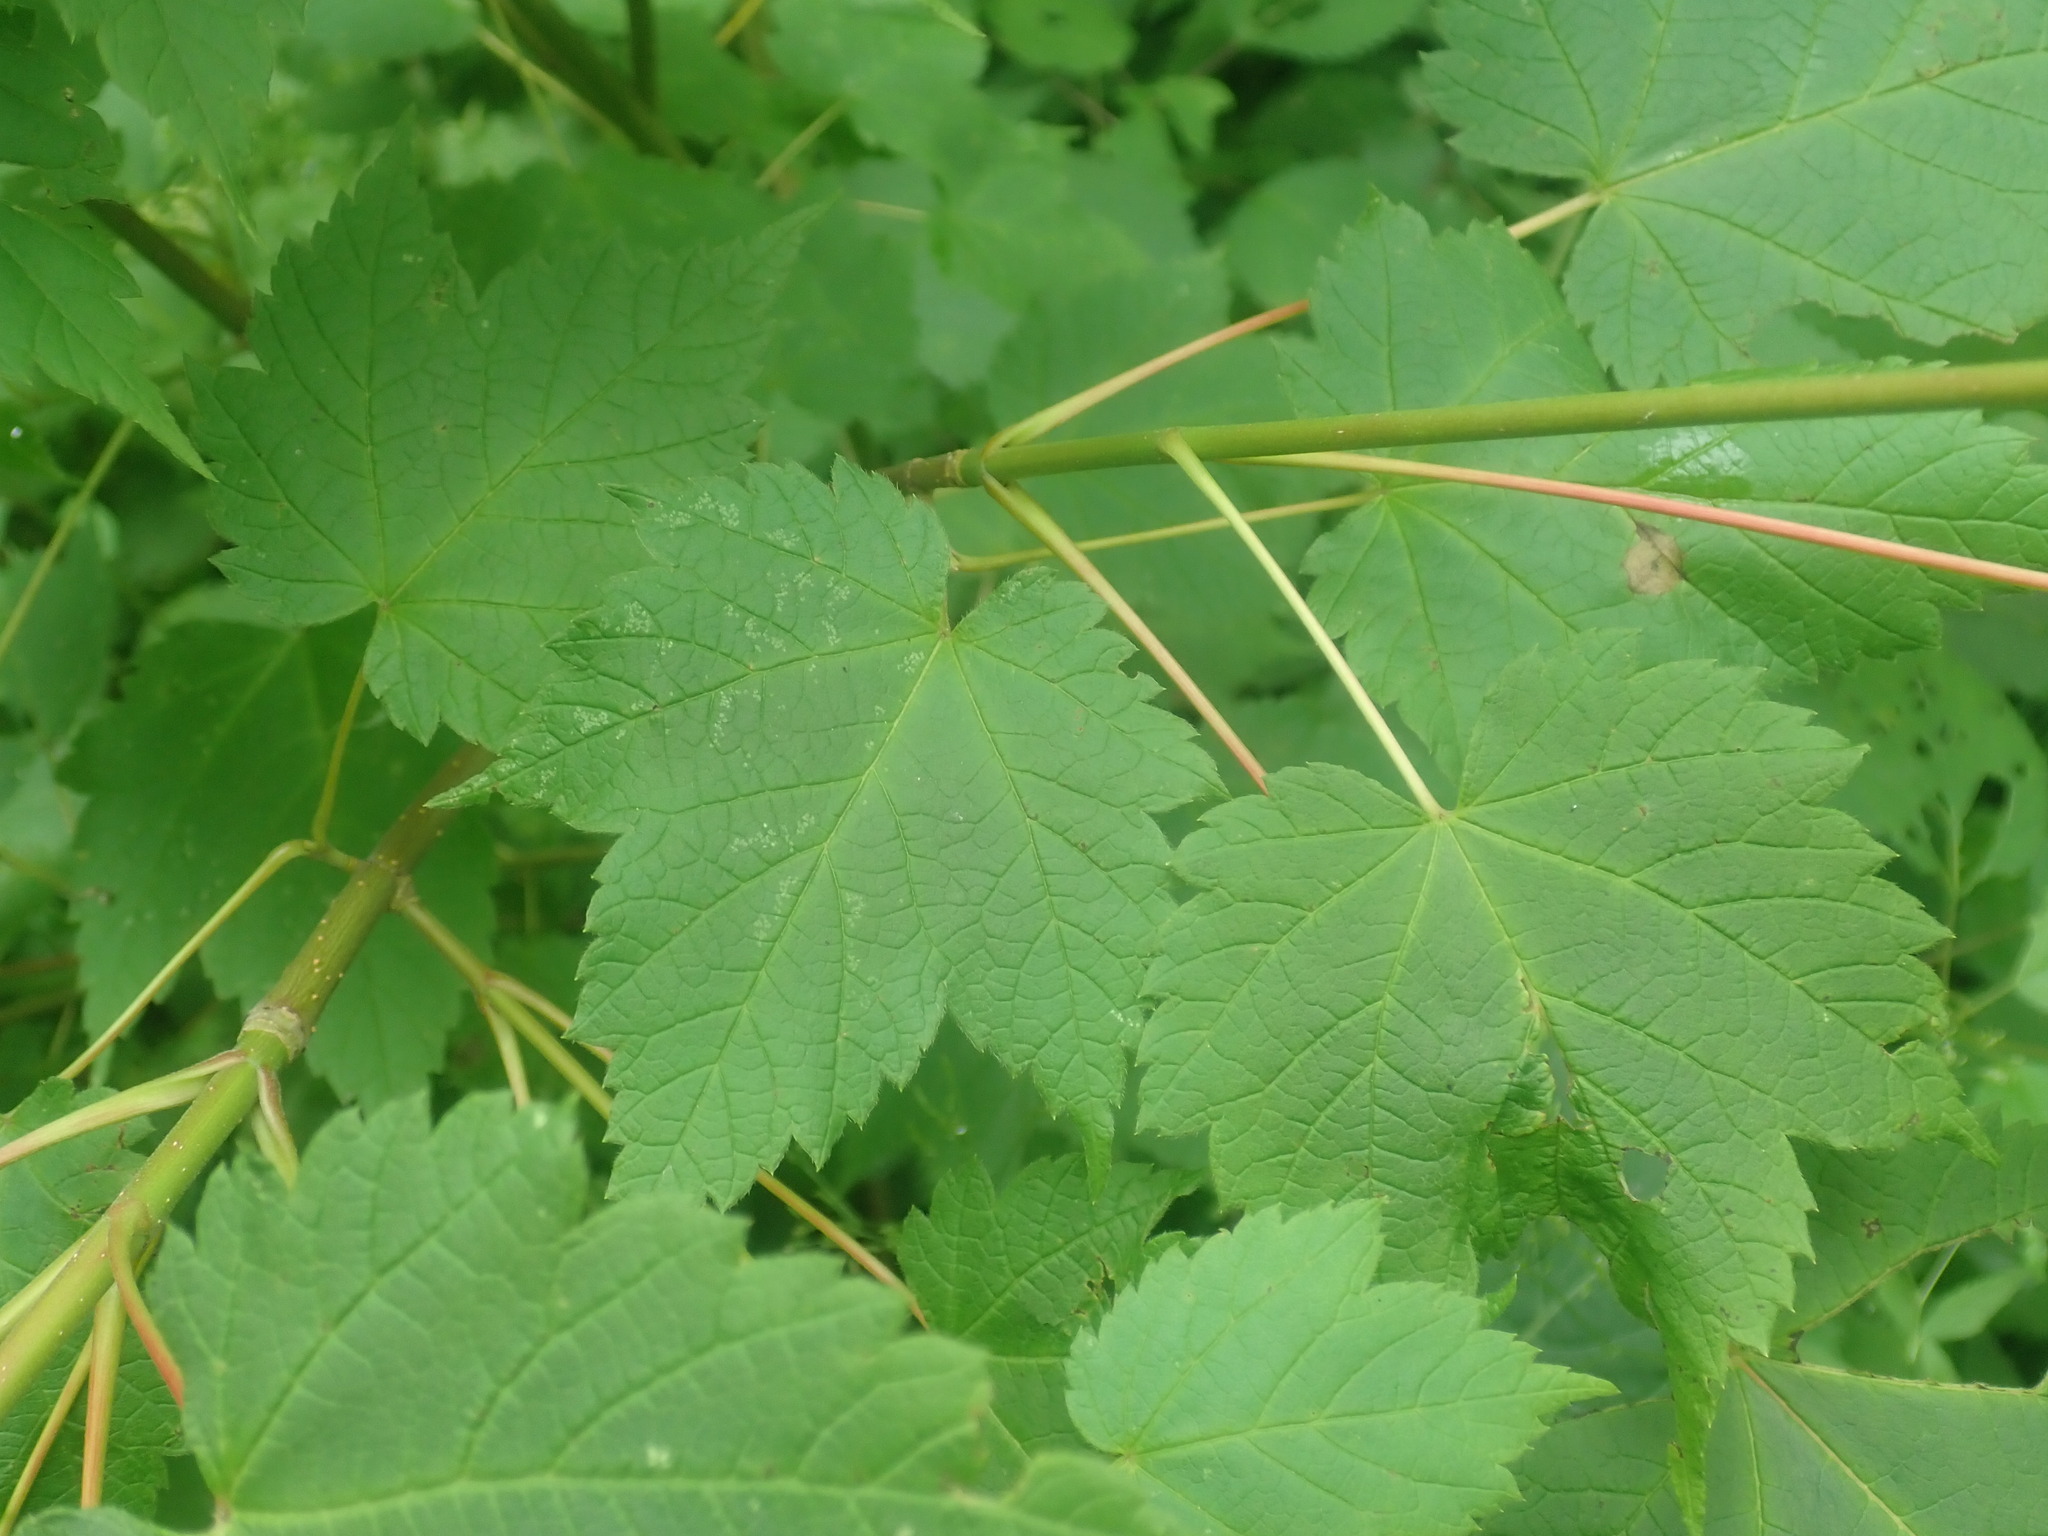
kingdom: Plantae
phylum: Tracheophyta
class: Magnoliopsida
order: Sapindales
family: Sapindaceae
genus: Acer
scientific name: Acer spicatum
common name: Mountain maple
